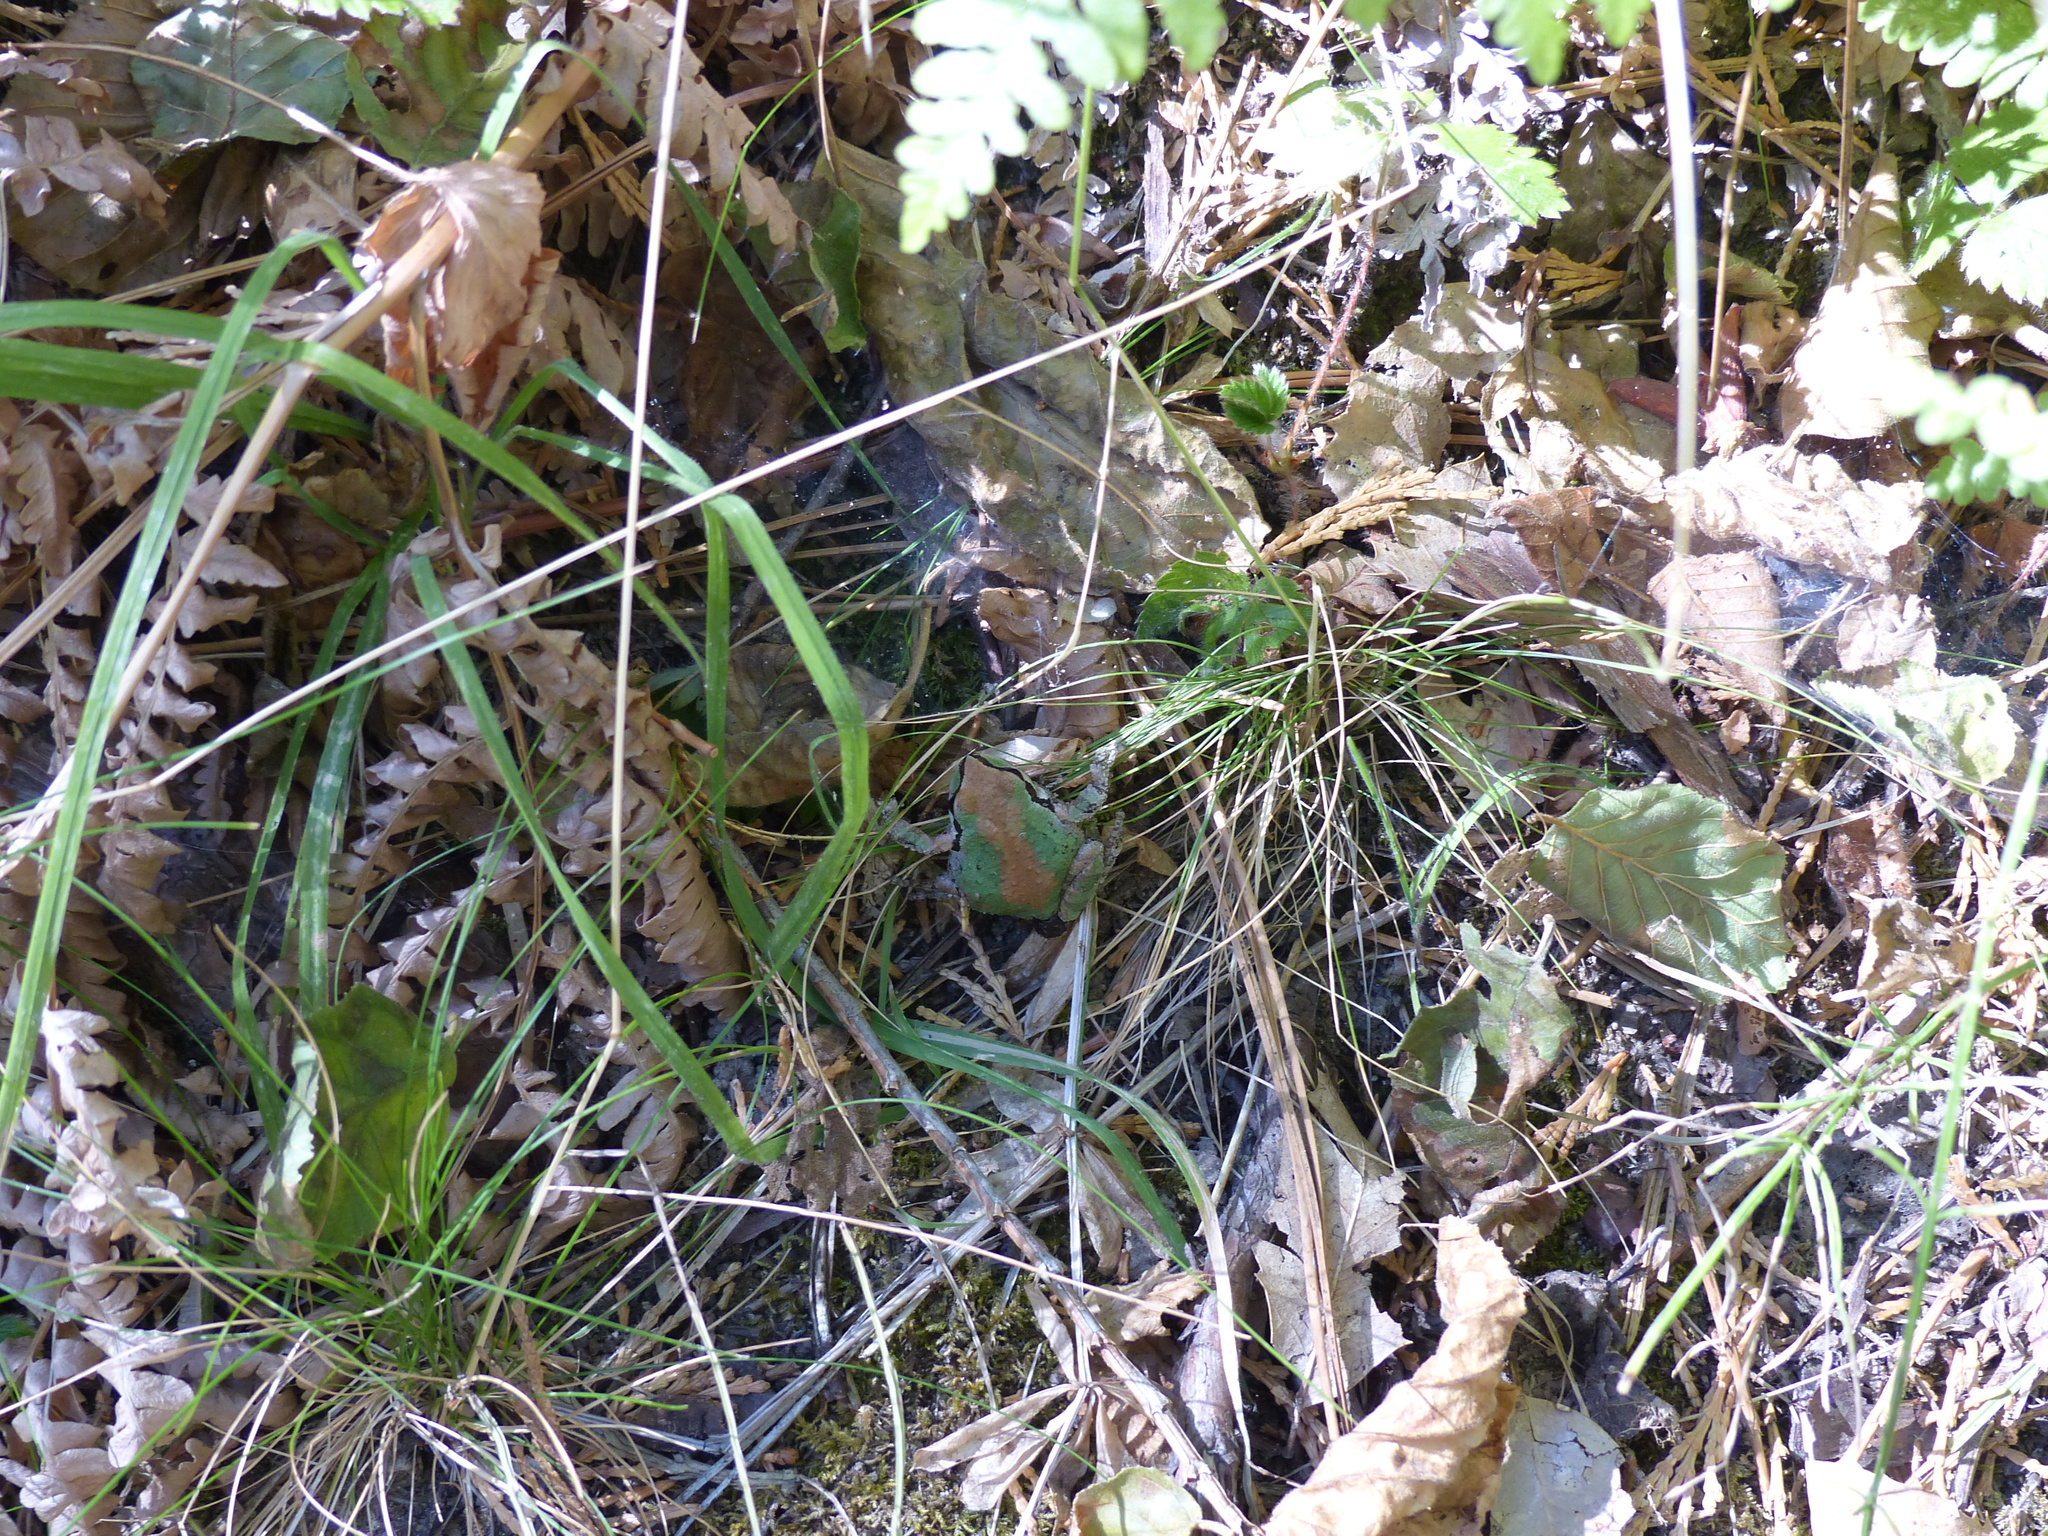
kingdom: Animalia
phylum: Chordata
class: Amphibia
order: Anura
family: Hylidae
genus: Pseudacris
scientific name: Pseudacris regilla
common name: Pacific chorus frog
